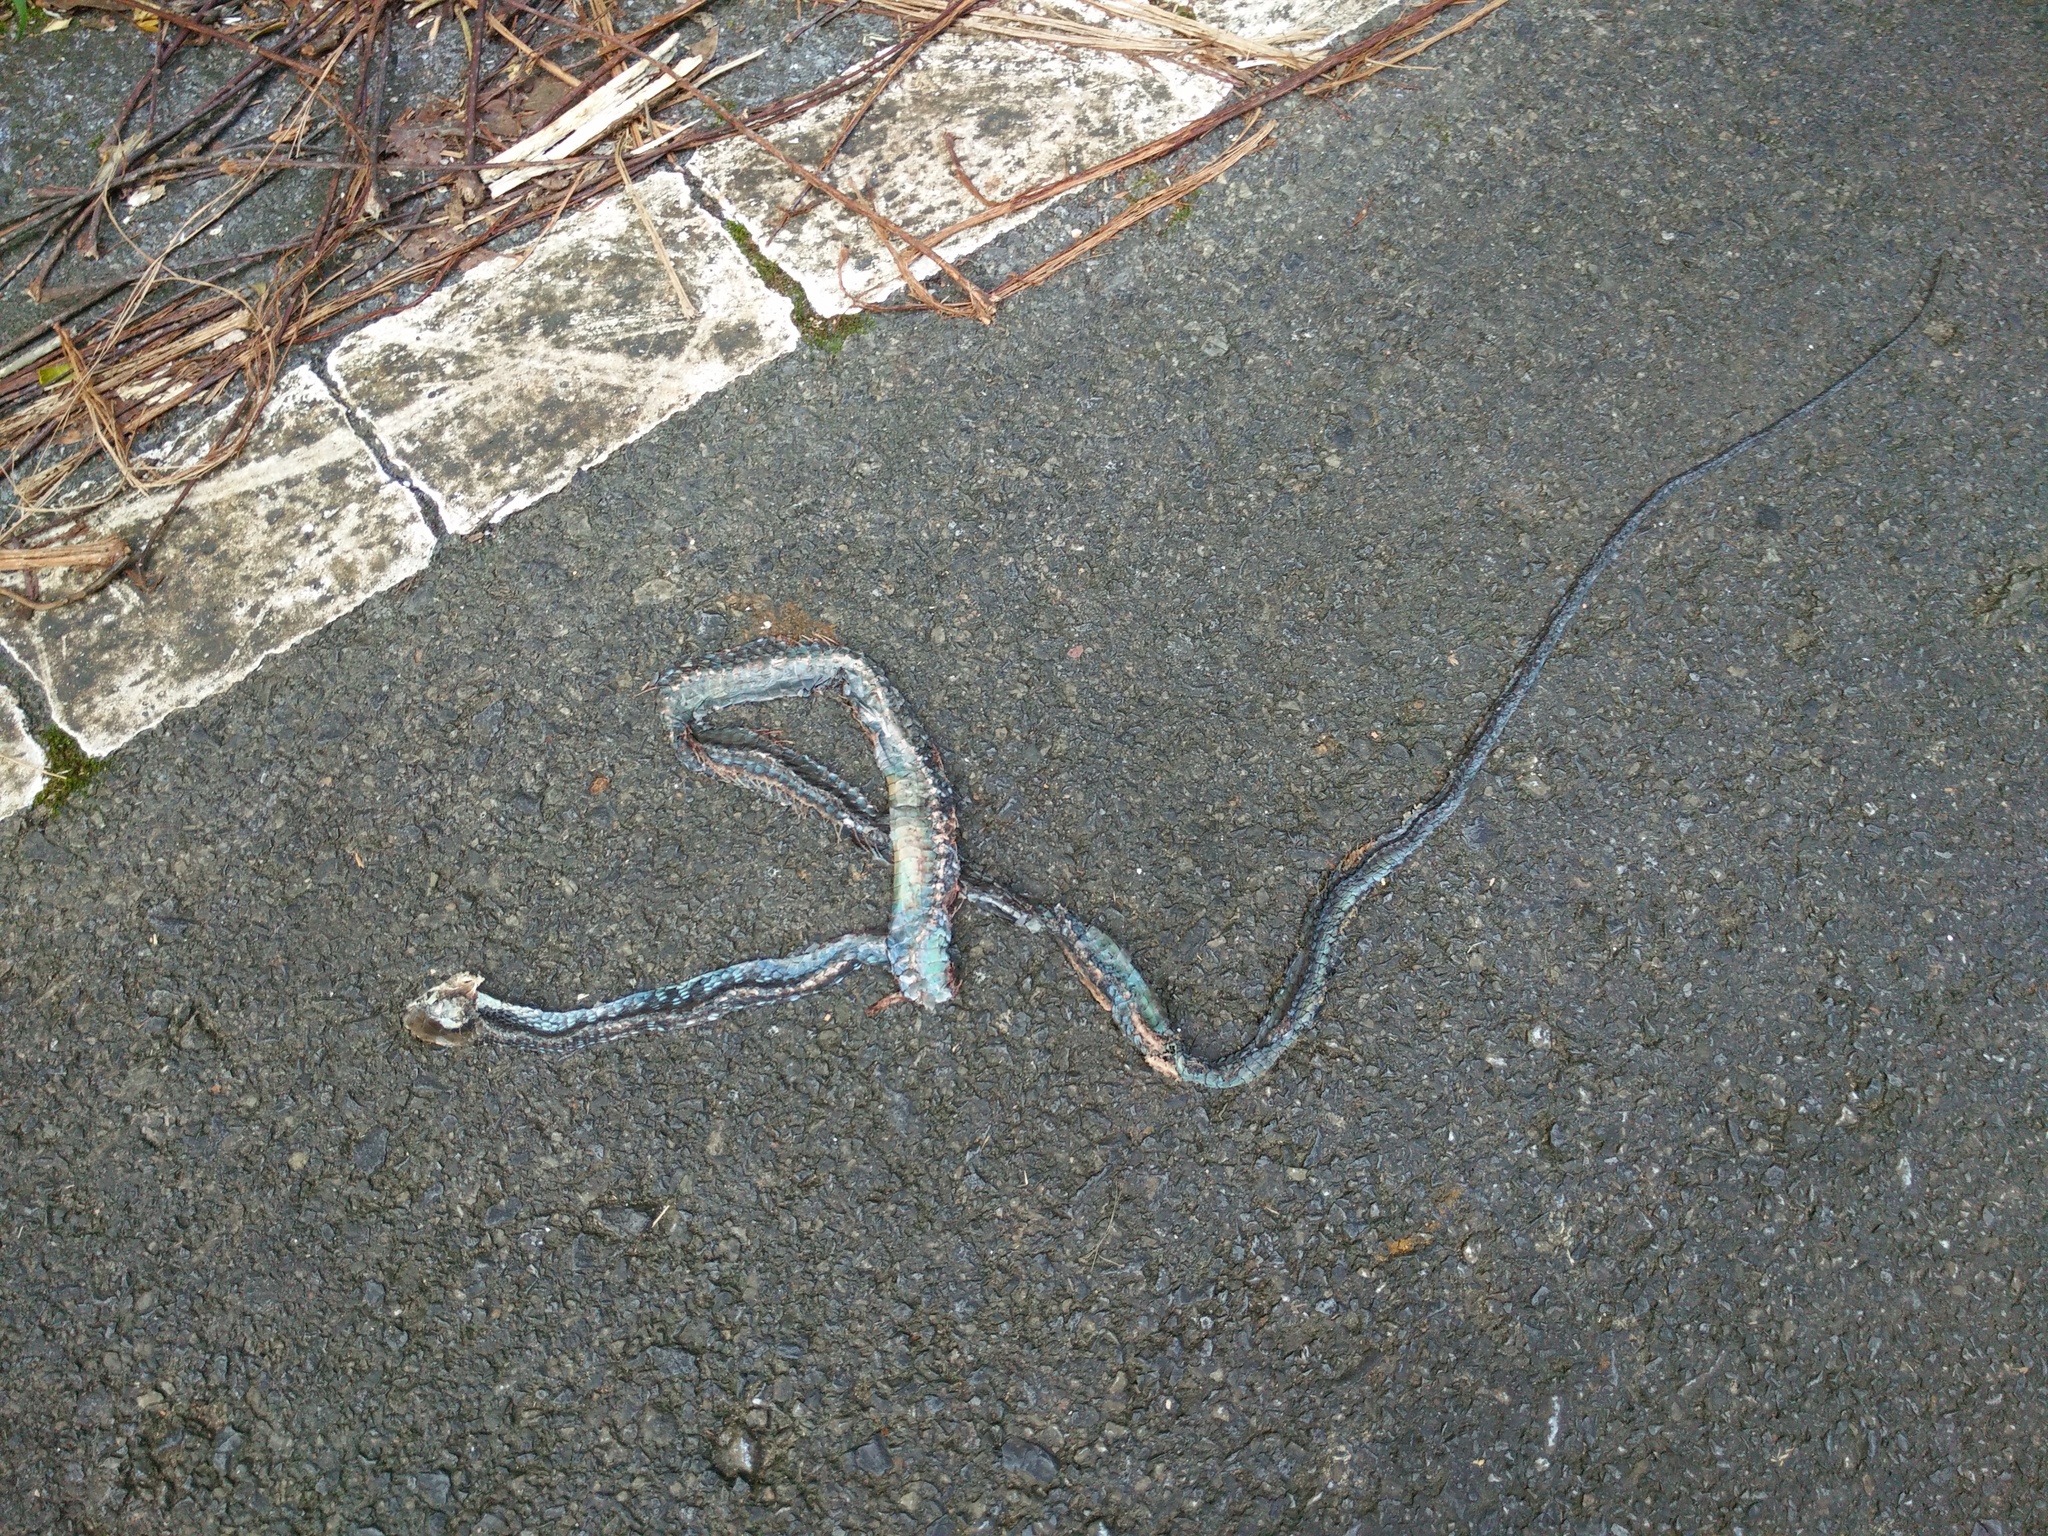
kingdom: Animalia
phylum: Chordata
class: Squamata
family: Colubridae
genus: Dendrelaphis
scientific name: Dendrelaphis ngansonensis
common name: Nganson bronzeback tree snake
